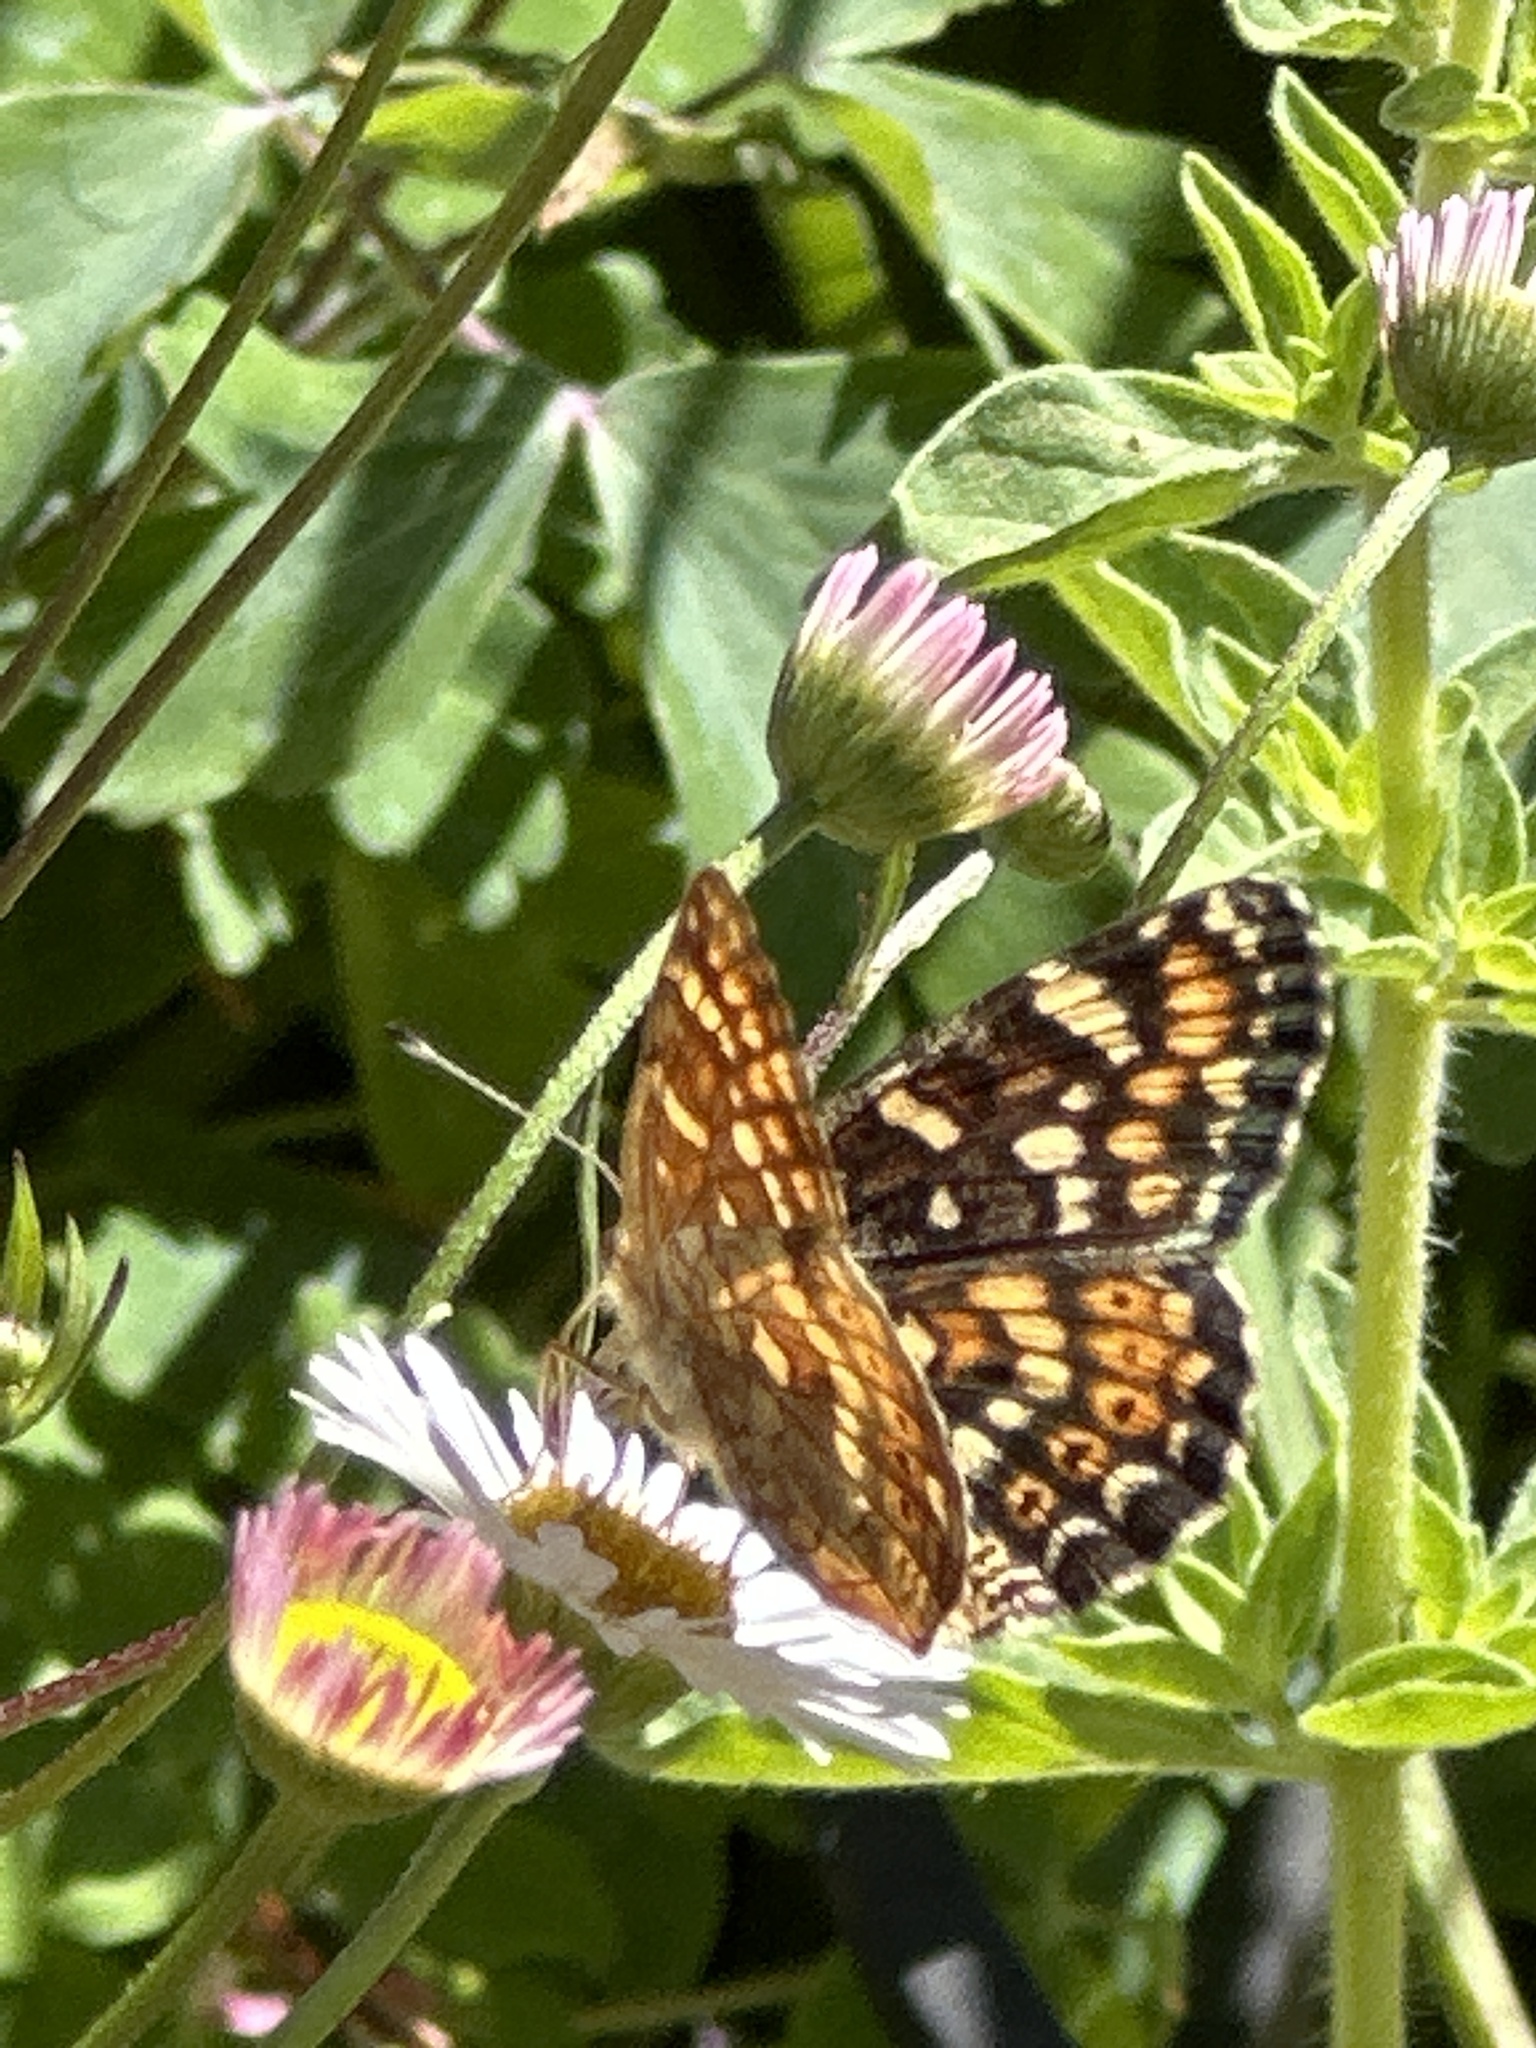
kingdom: Animalia
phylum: Arthropoda
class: Insecta
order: Lepidoptera
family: Nymphalidae
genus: Phyciodes
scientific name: Phyciodes tharos
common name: Pearl crescent
